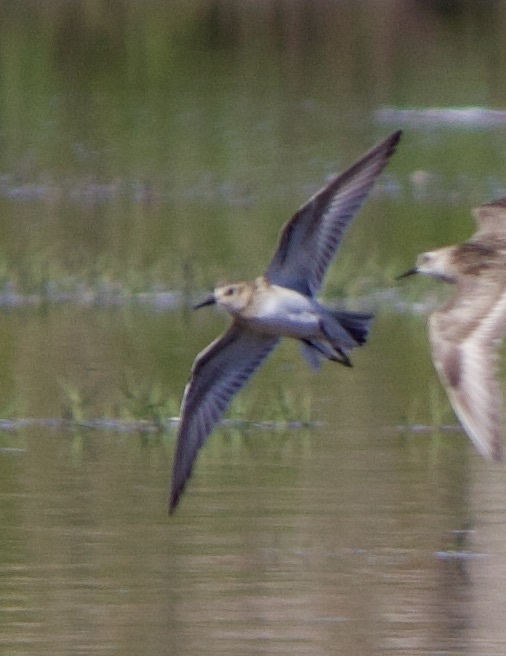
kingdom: Animalia
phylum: Chordata
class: Aves
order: Charadriiformes
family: Scolopacidae
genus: Calidris
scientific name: Calidris bairdii
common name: Baird's sandpiper
